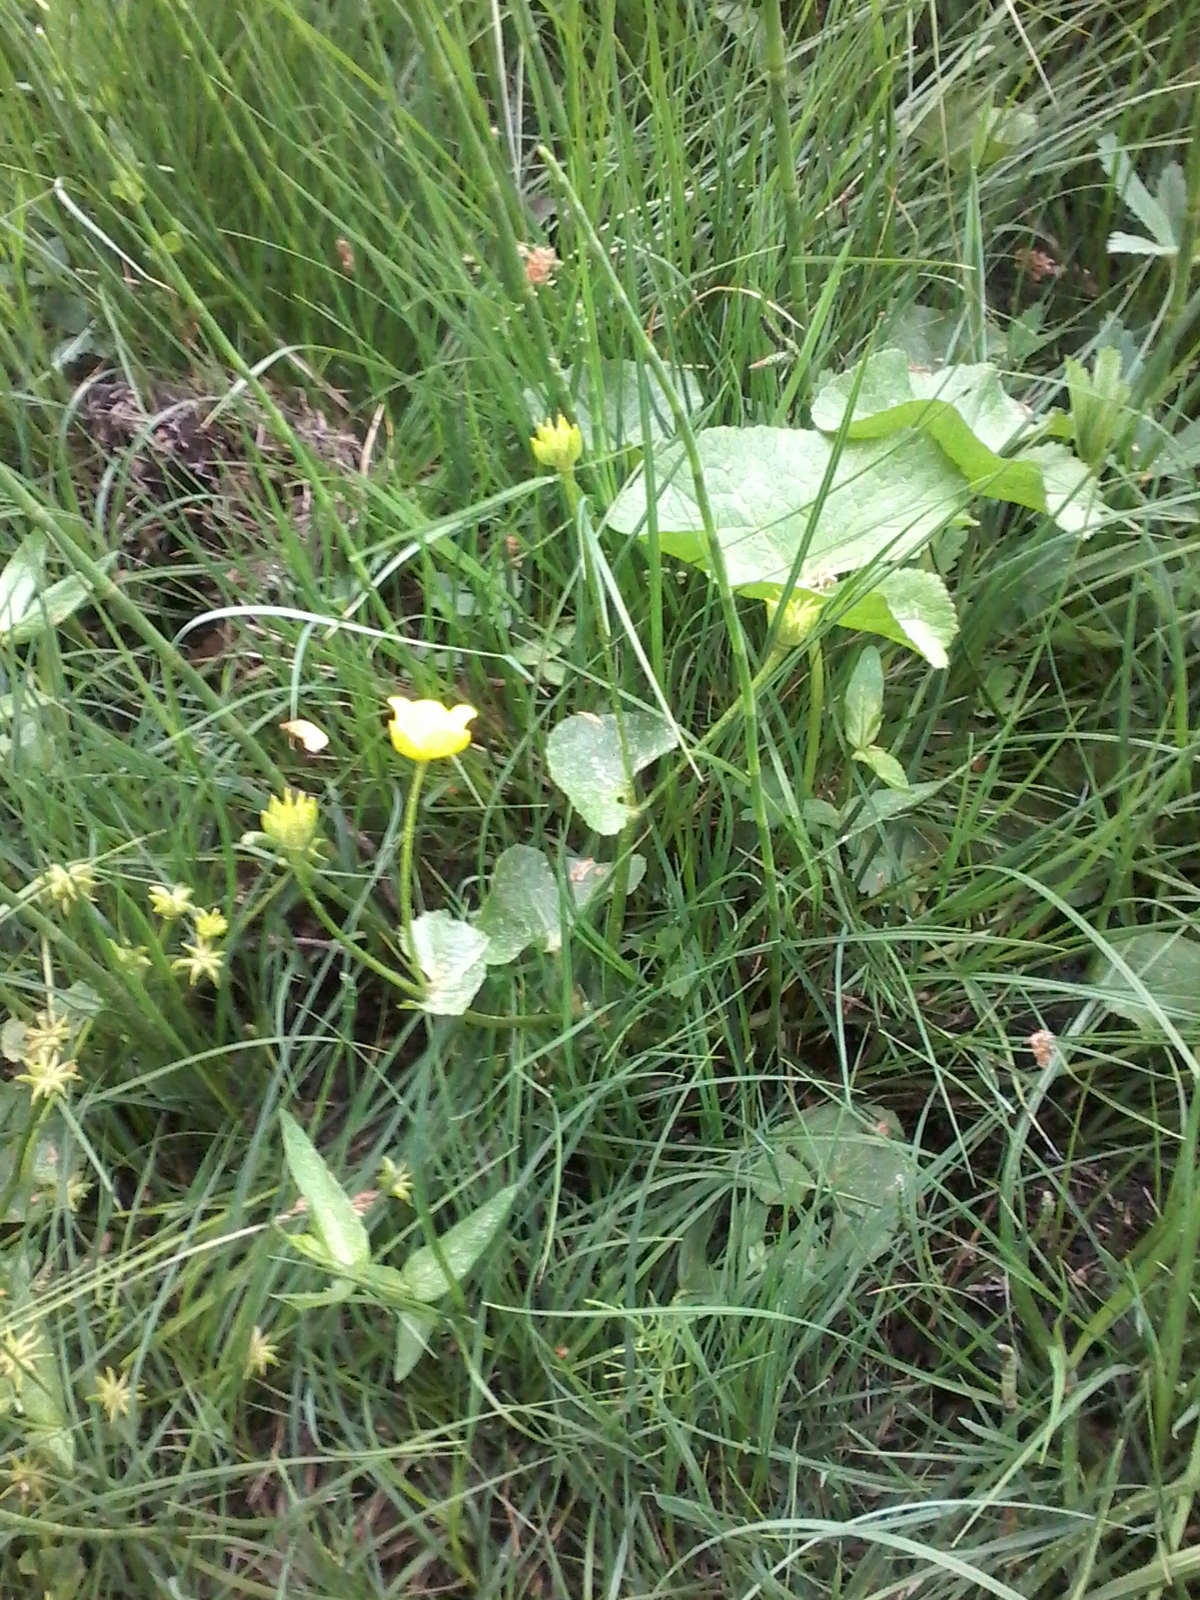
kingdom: Plantae
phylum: Tracheophyta
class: Magnoliopsida
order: Ranunculales
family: Ranunculaceae
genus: Caltha
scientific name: Caltha palustris
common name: Marsh marigold
